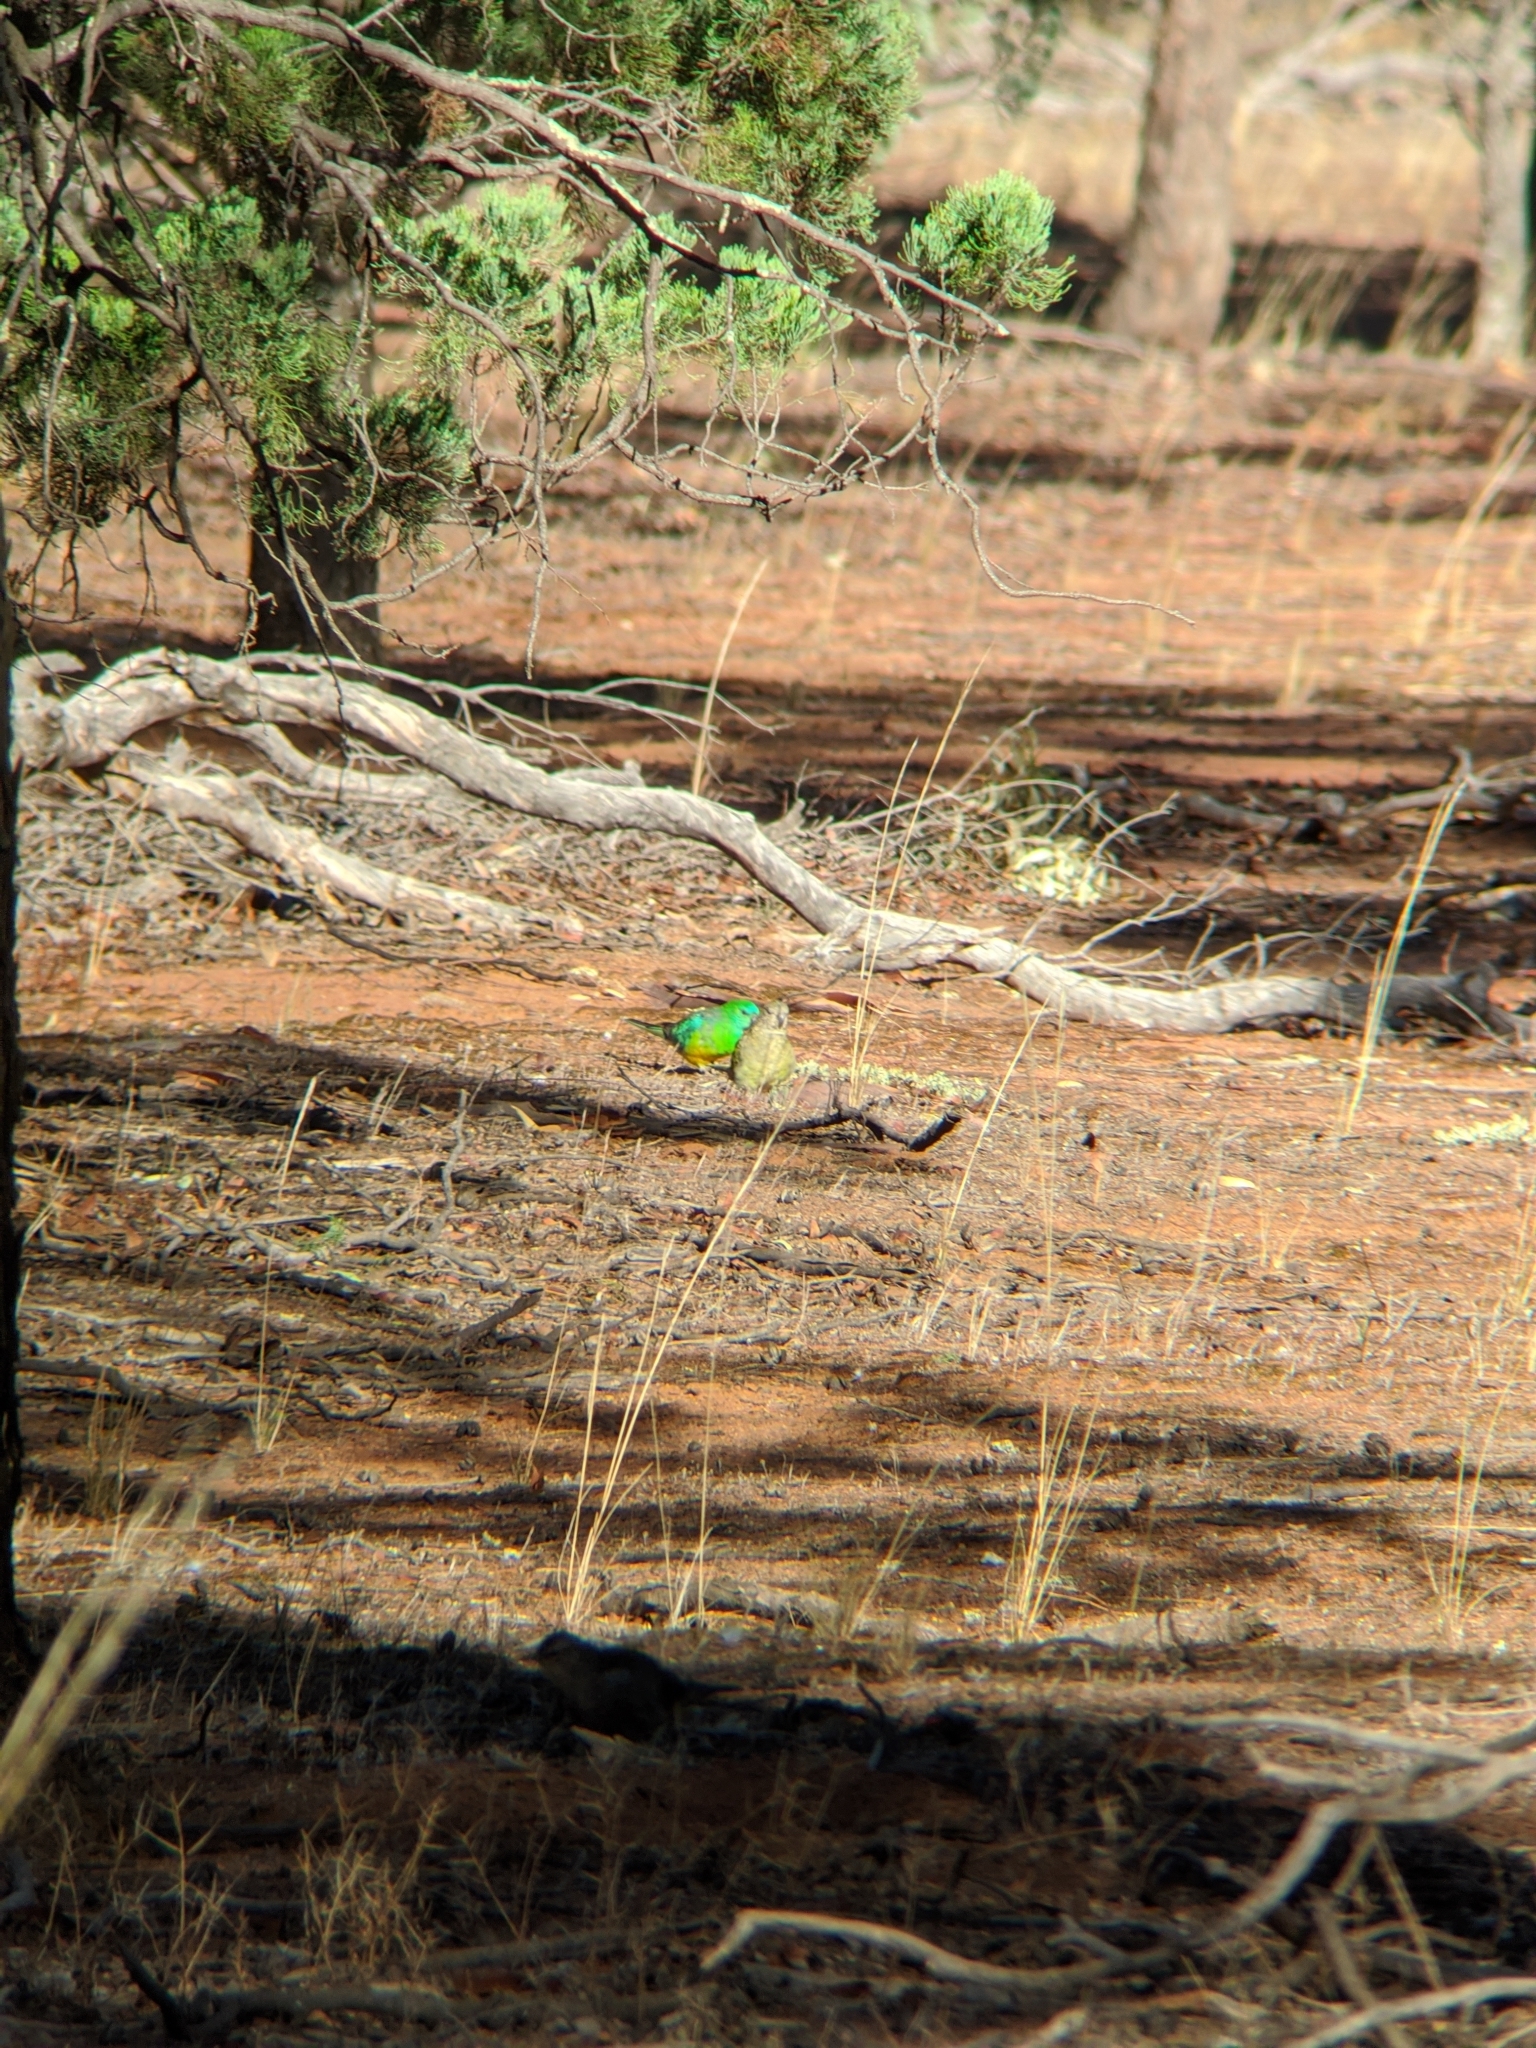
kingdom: Animalia
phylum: Chordata
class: Aves
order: Psittaciformes
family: Psittacidae
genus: Psephotus
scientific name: Psephotus haematonotus
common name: Red-rumped parrot
